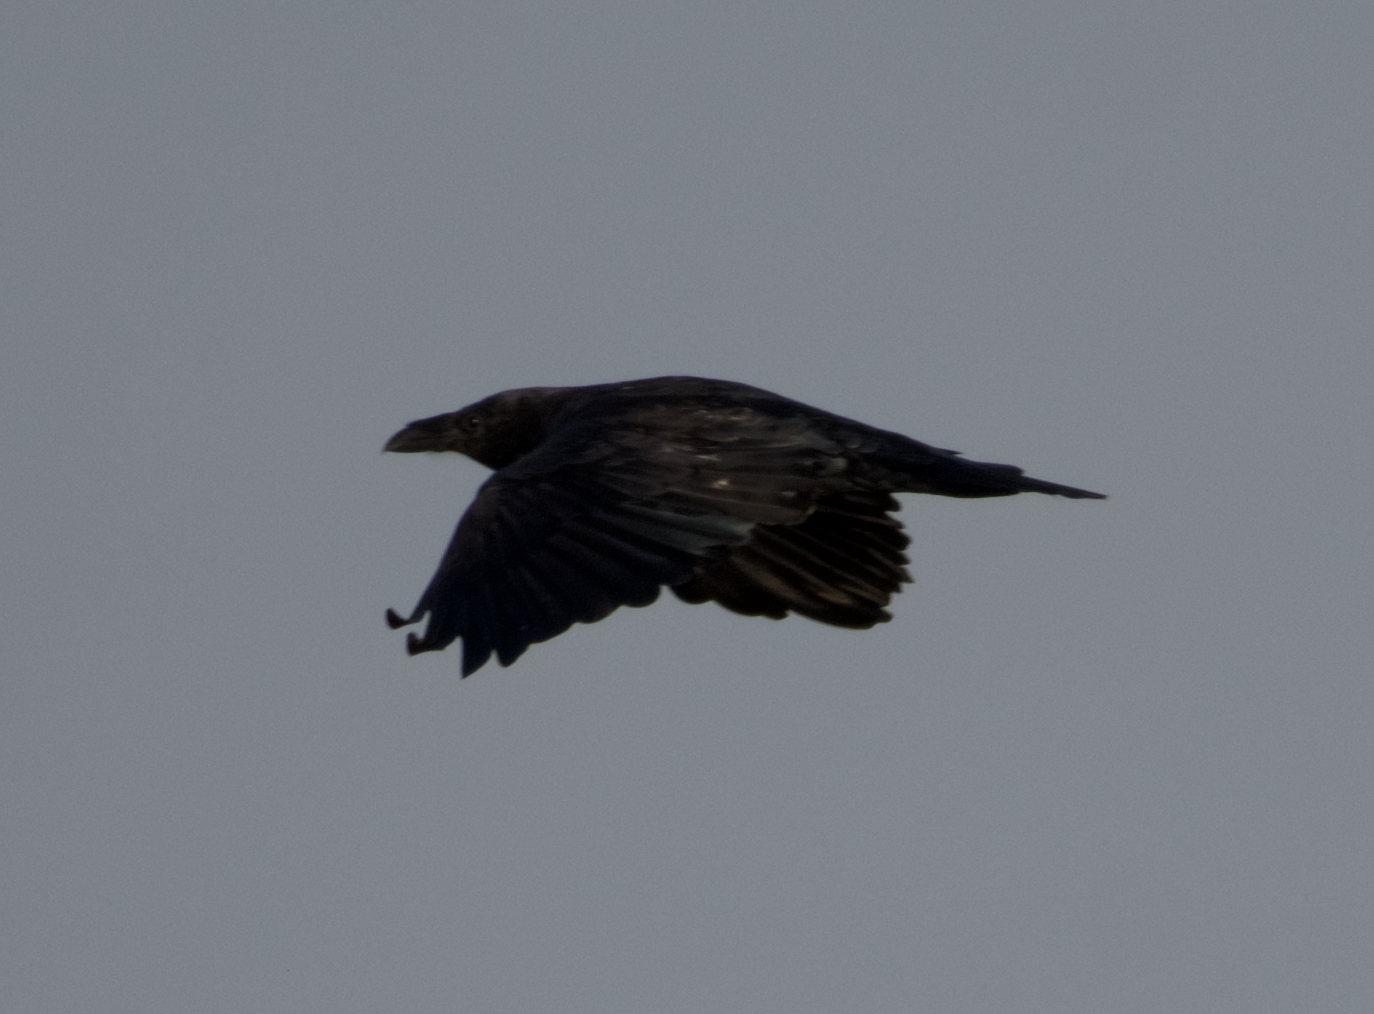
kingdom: Animalia
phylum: Chordata
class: Aves
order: Passeriformes
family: Corvidae
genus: Corvus
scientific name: Corvus corax
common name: Common raven
